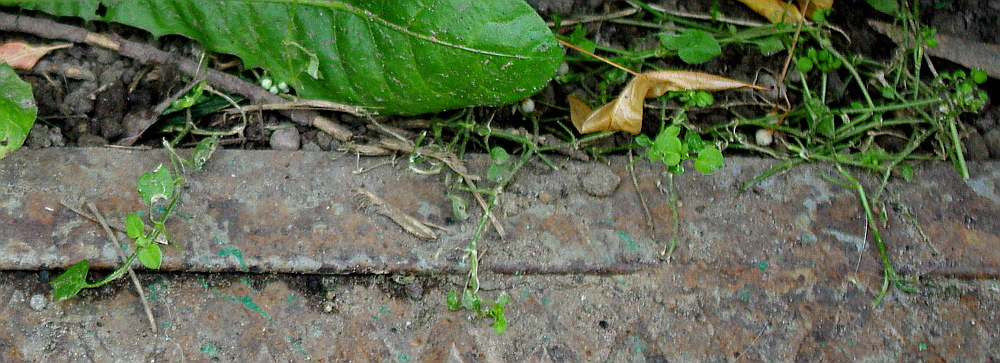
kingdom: Plantae
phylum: Tracheophyta
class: Magnoliopsida
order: Caryophyllales
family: Caryophyllaceae
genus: Stellaria
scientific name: Stellaria media
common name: Common chickweed
